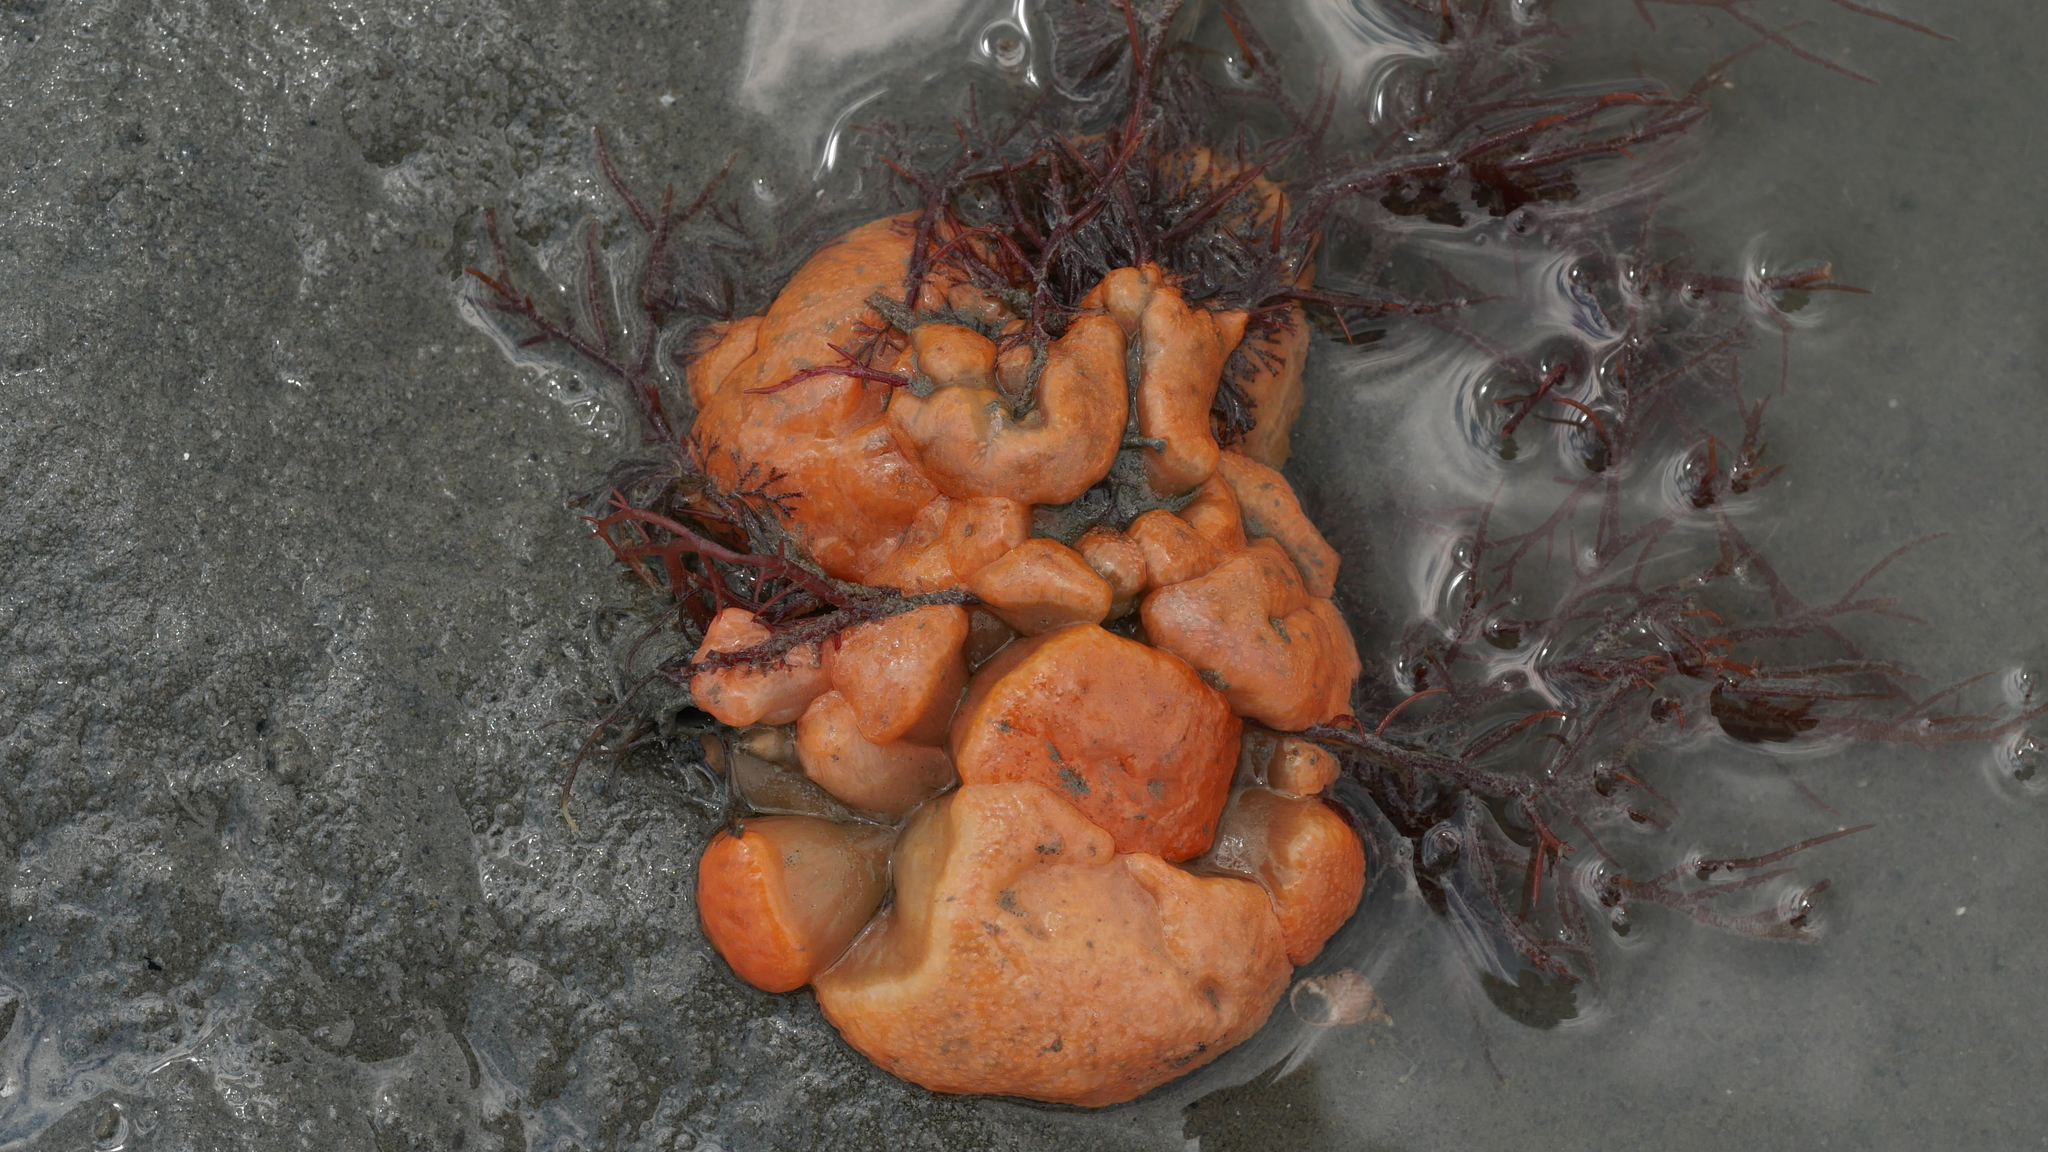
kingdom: Animalia
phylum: Chordata
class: Ascidiacea
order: Aplousobranchia
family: Polyclinidae
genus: Aplidium
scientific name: Aplidium stellatum
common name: Atlantic sea pork
